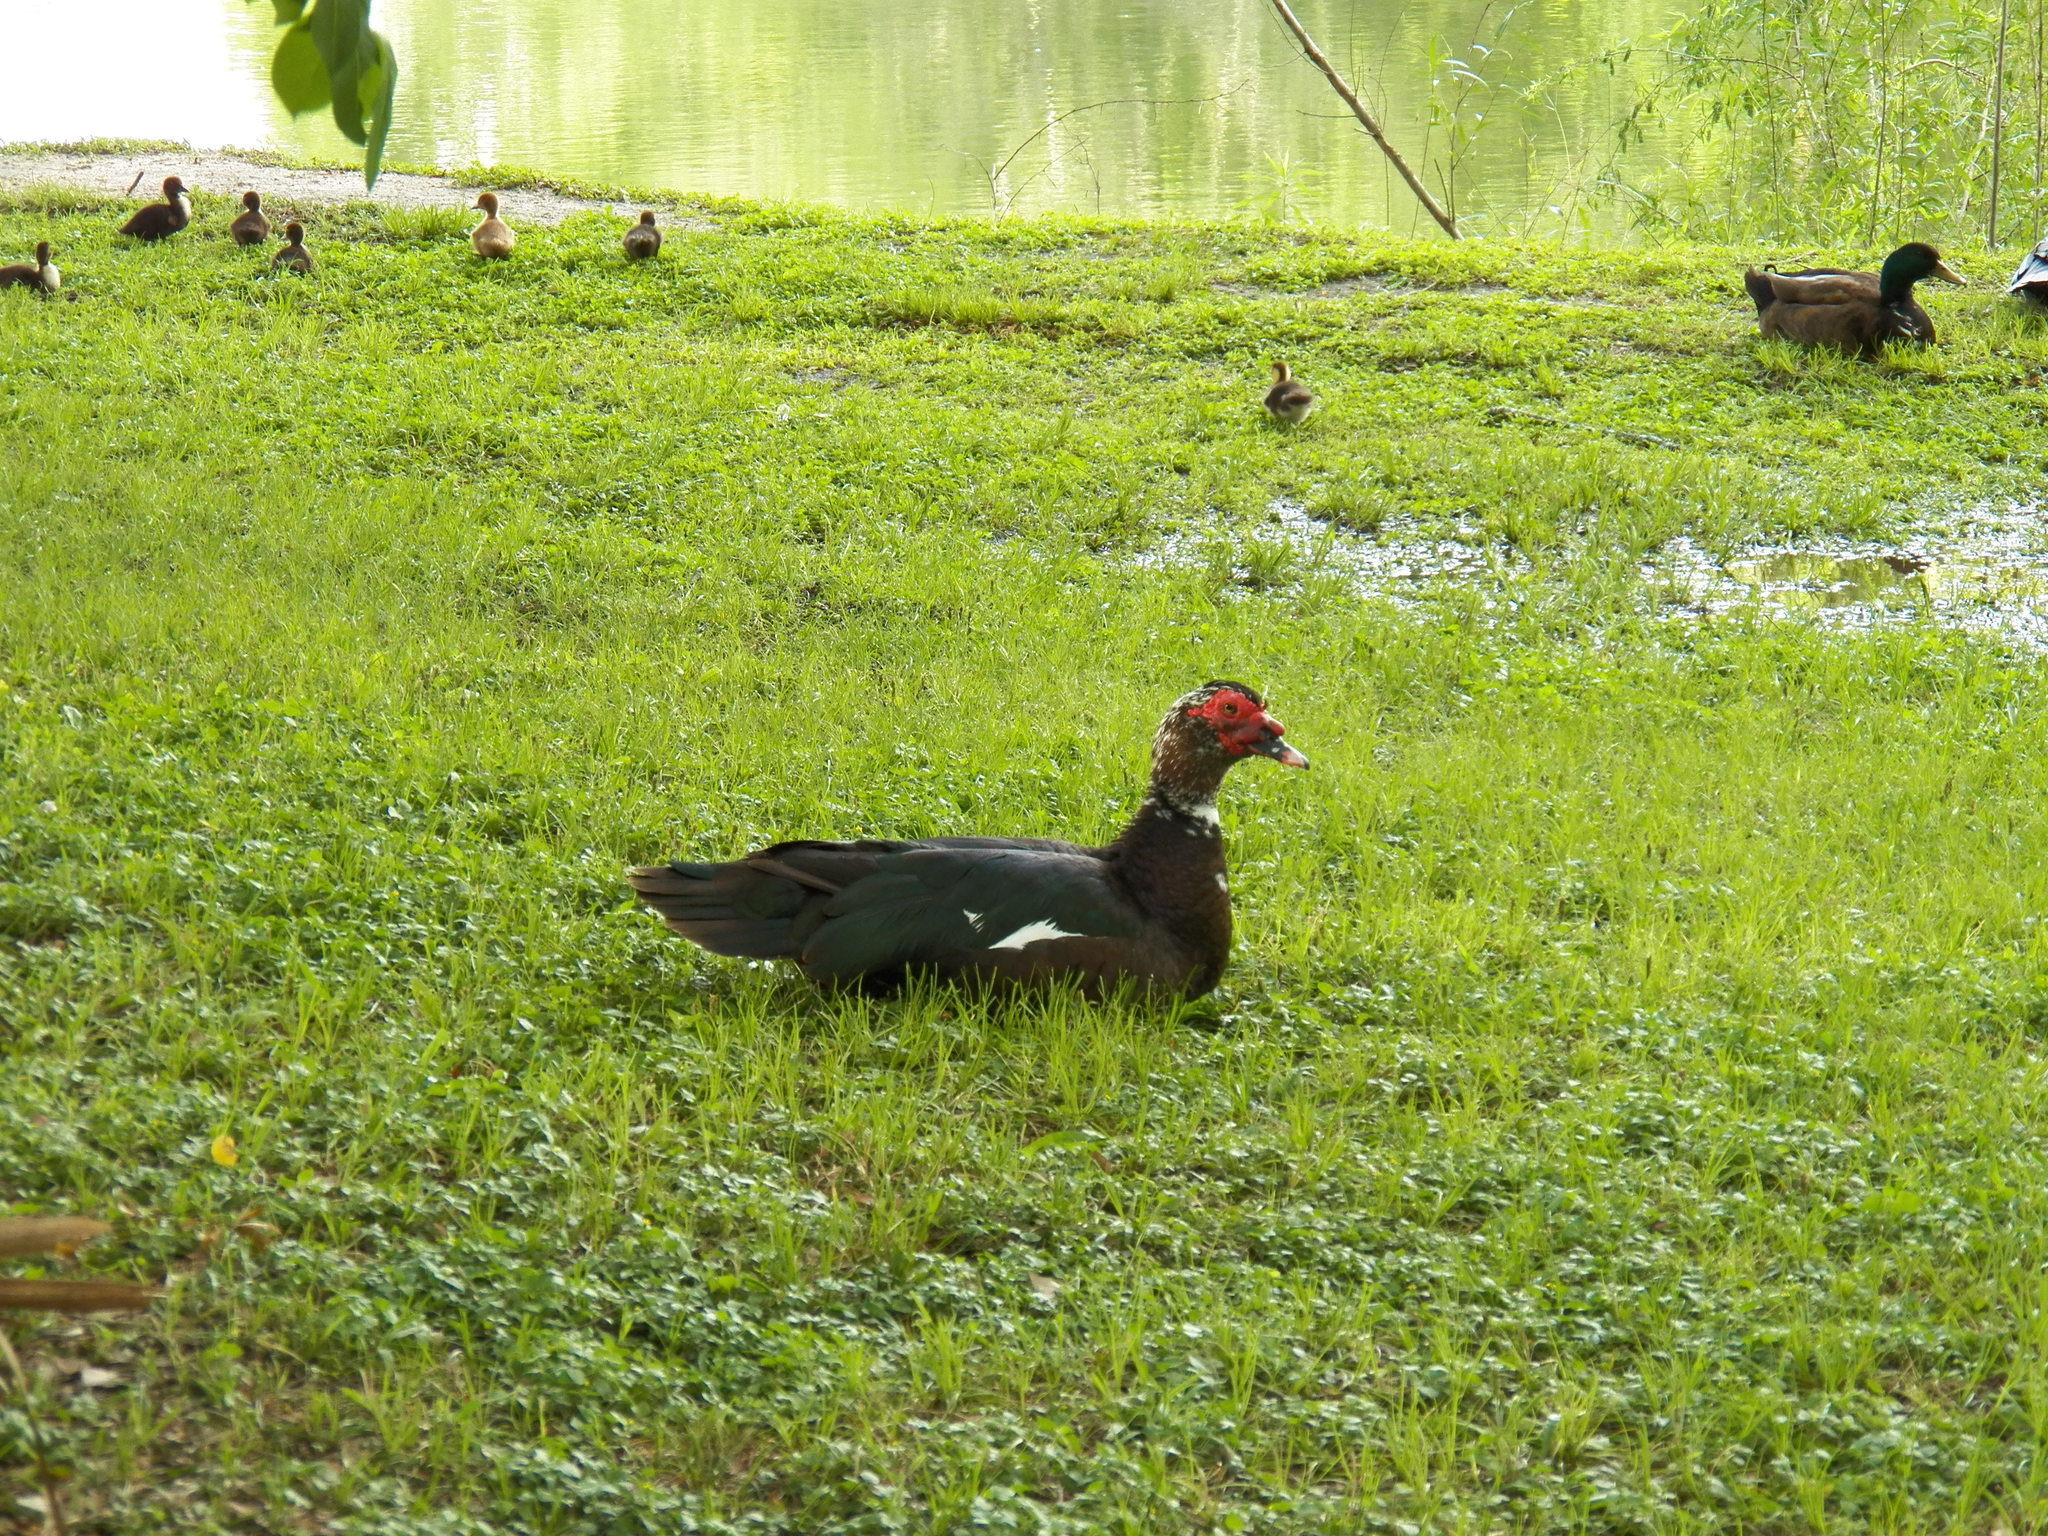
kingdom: Animalia
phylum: Chordata
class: Aves
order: Anseriformes
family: Anatidae
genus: Cairina
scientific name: Cairina moschata
